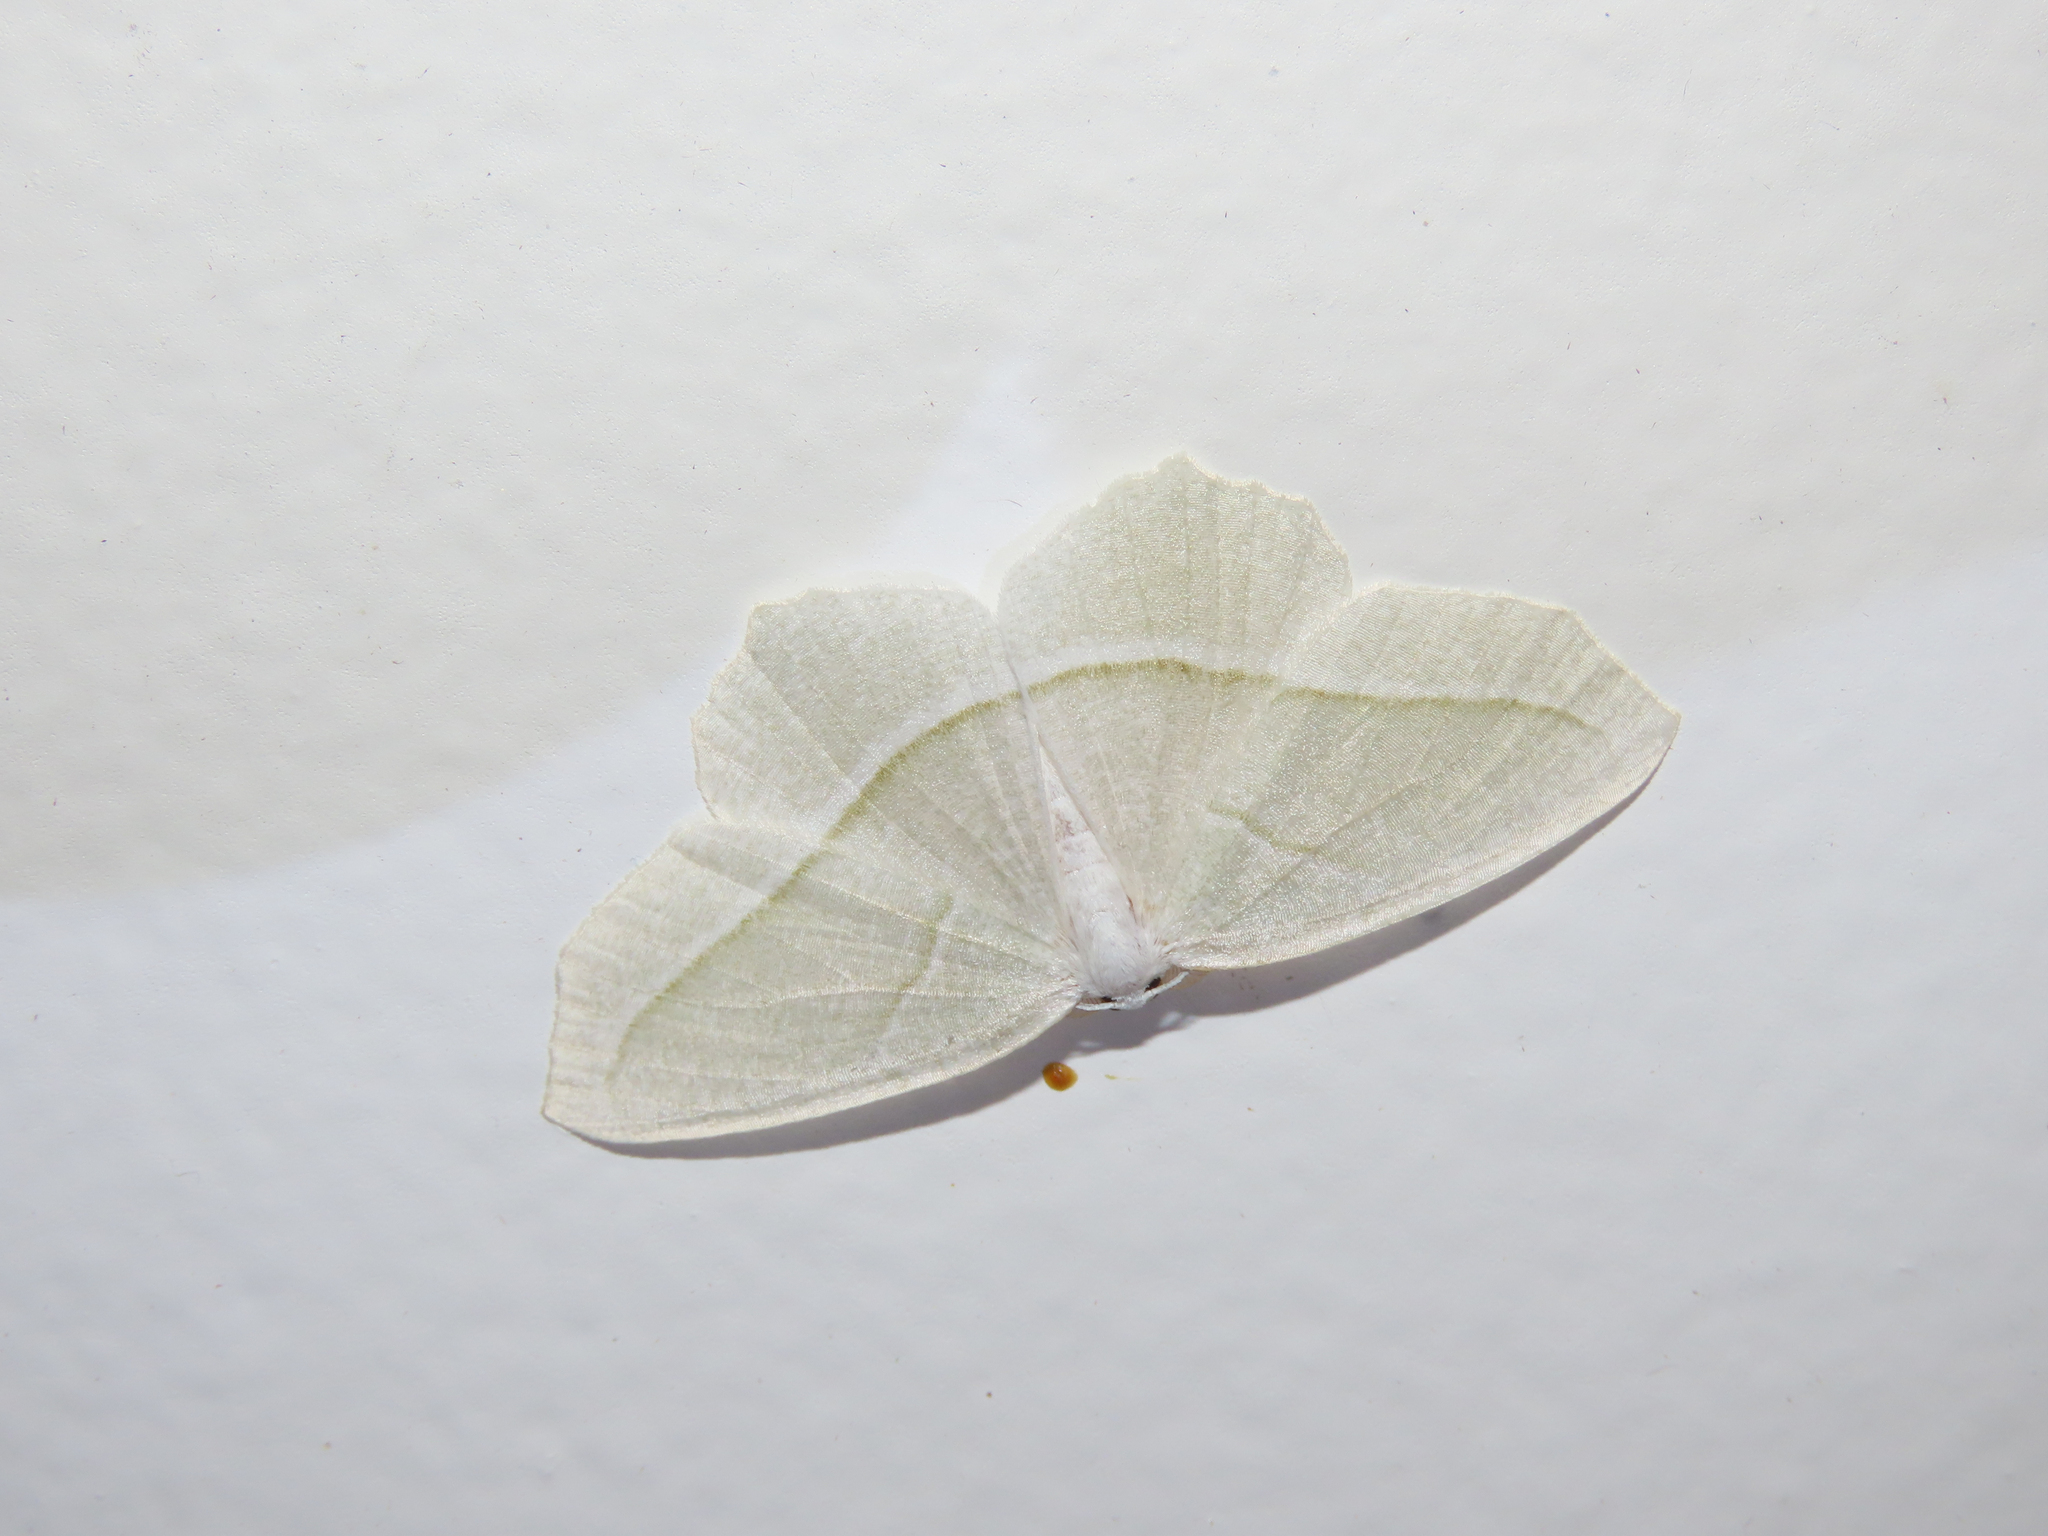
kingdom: Animalia
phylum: Arthropoda
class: Insecta
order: Lepidoptera
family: Geometridae
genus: Campaea
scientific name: Campaea perlata
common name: Fringed looper
